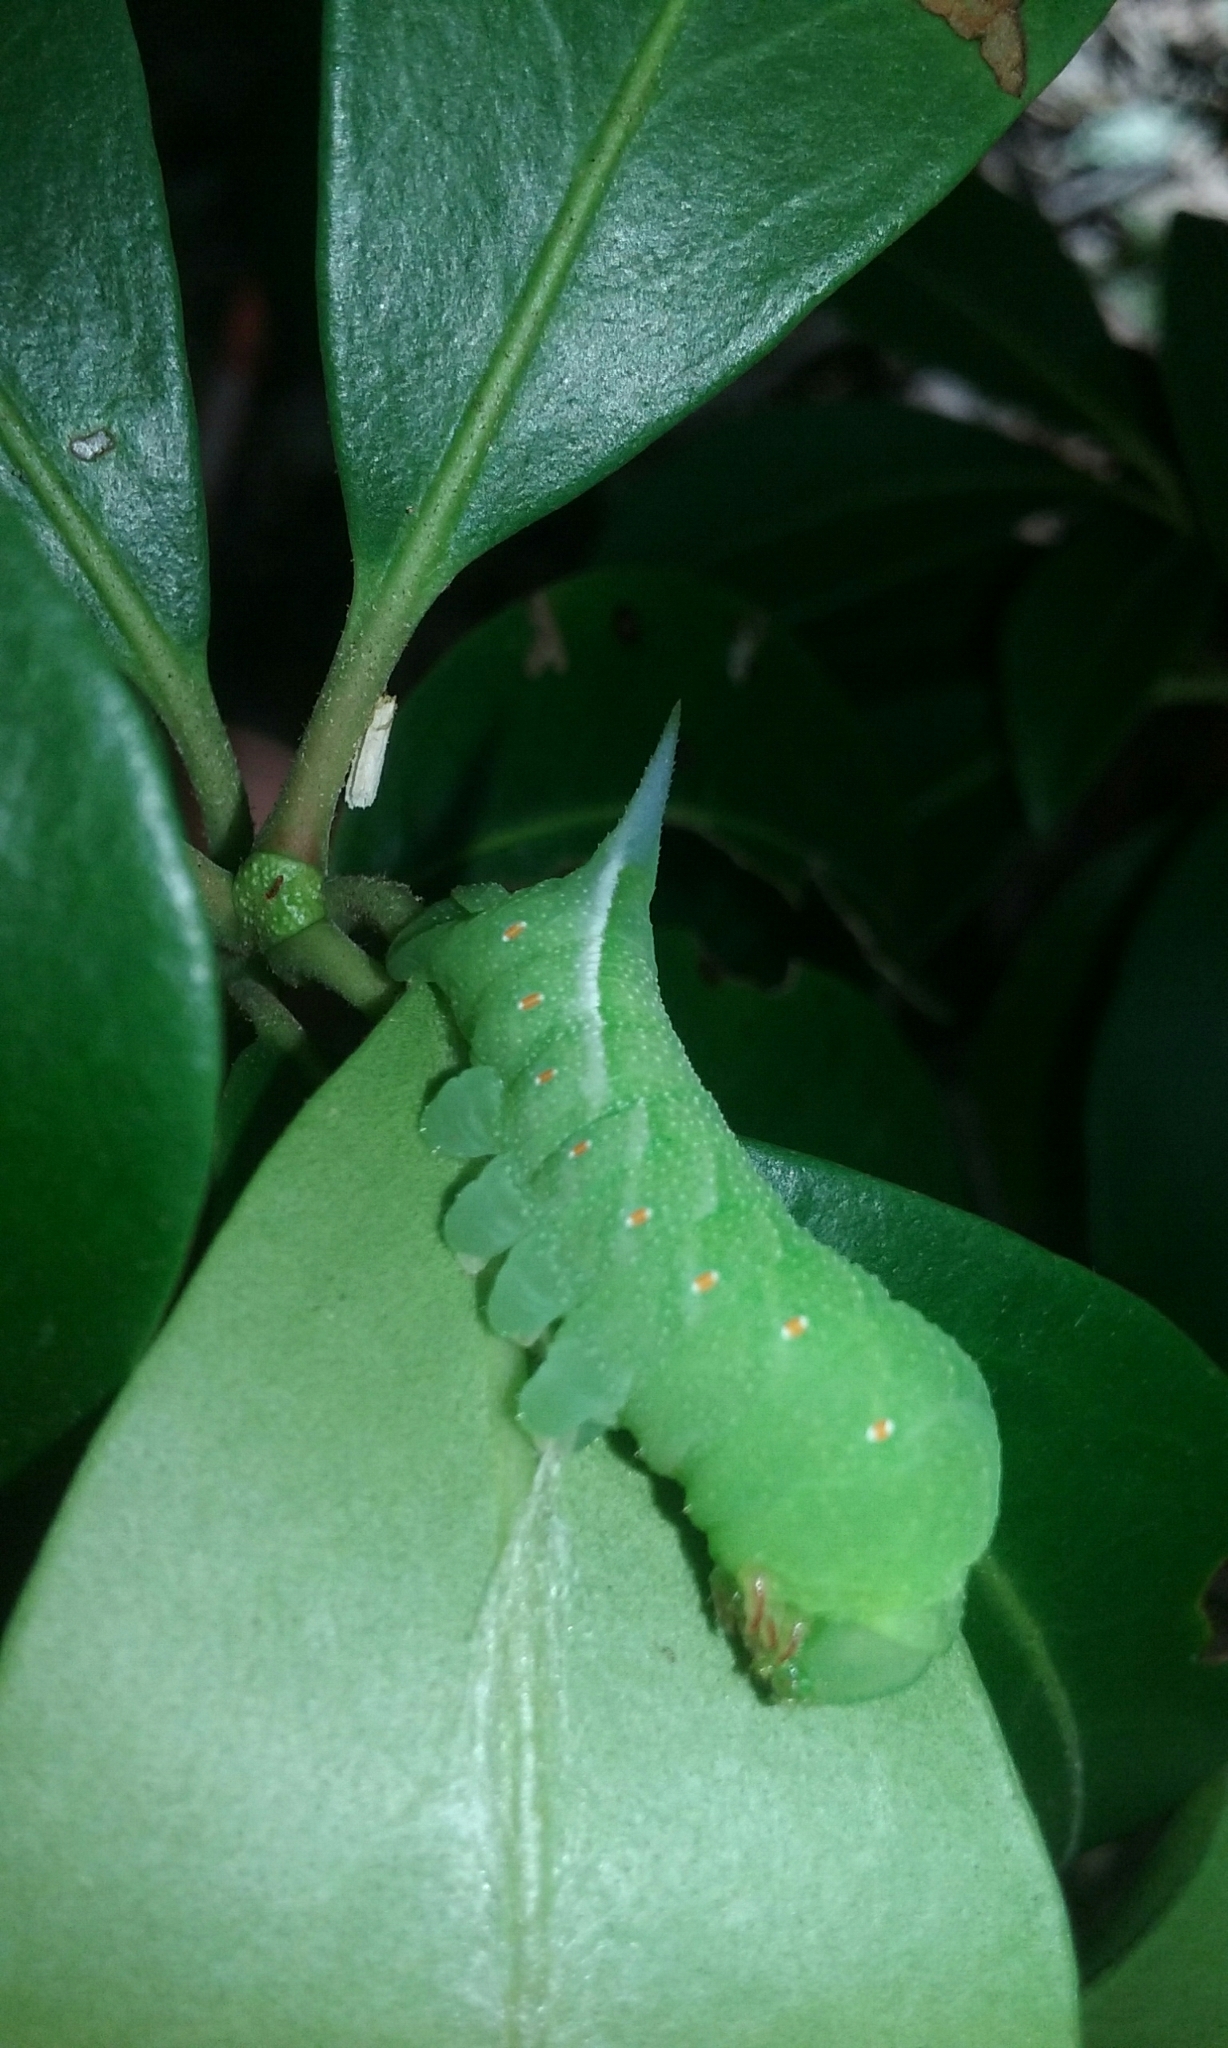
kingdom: Animalia
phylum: Arthropoda
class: Insecta
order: Lepidoptera
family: Sphingidae
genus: Darapsa
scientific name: Darapsa choerilus
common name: Azalea sphinx
